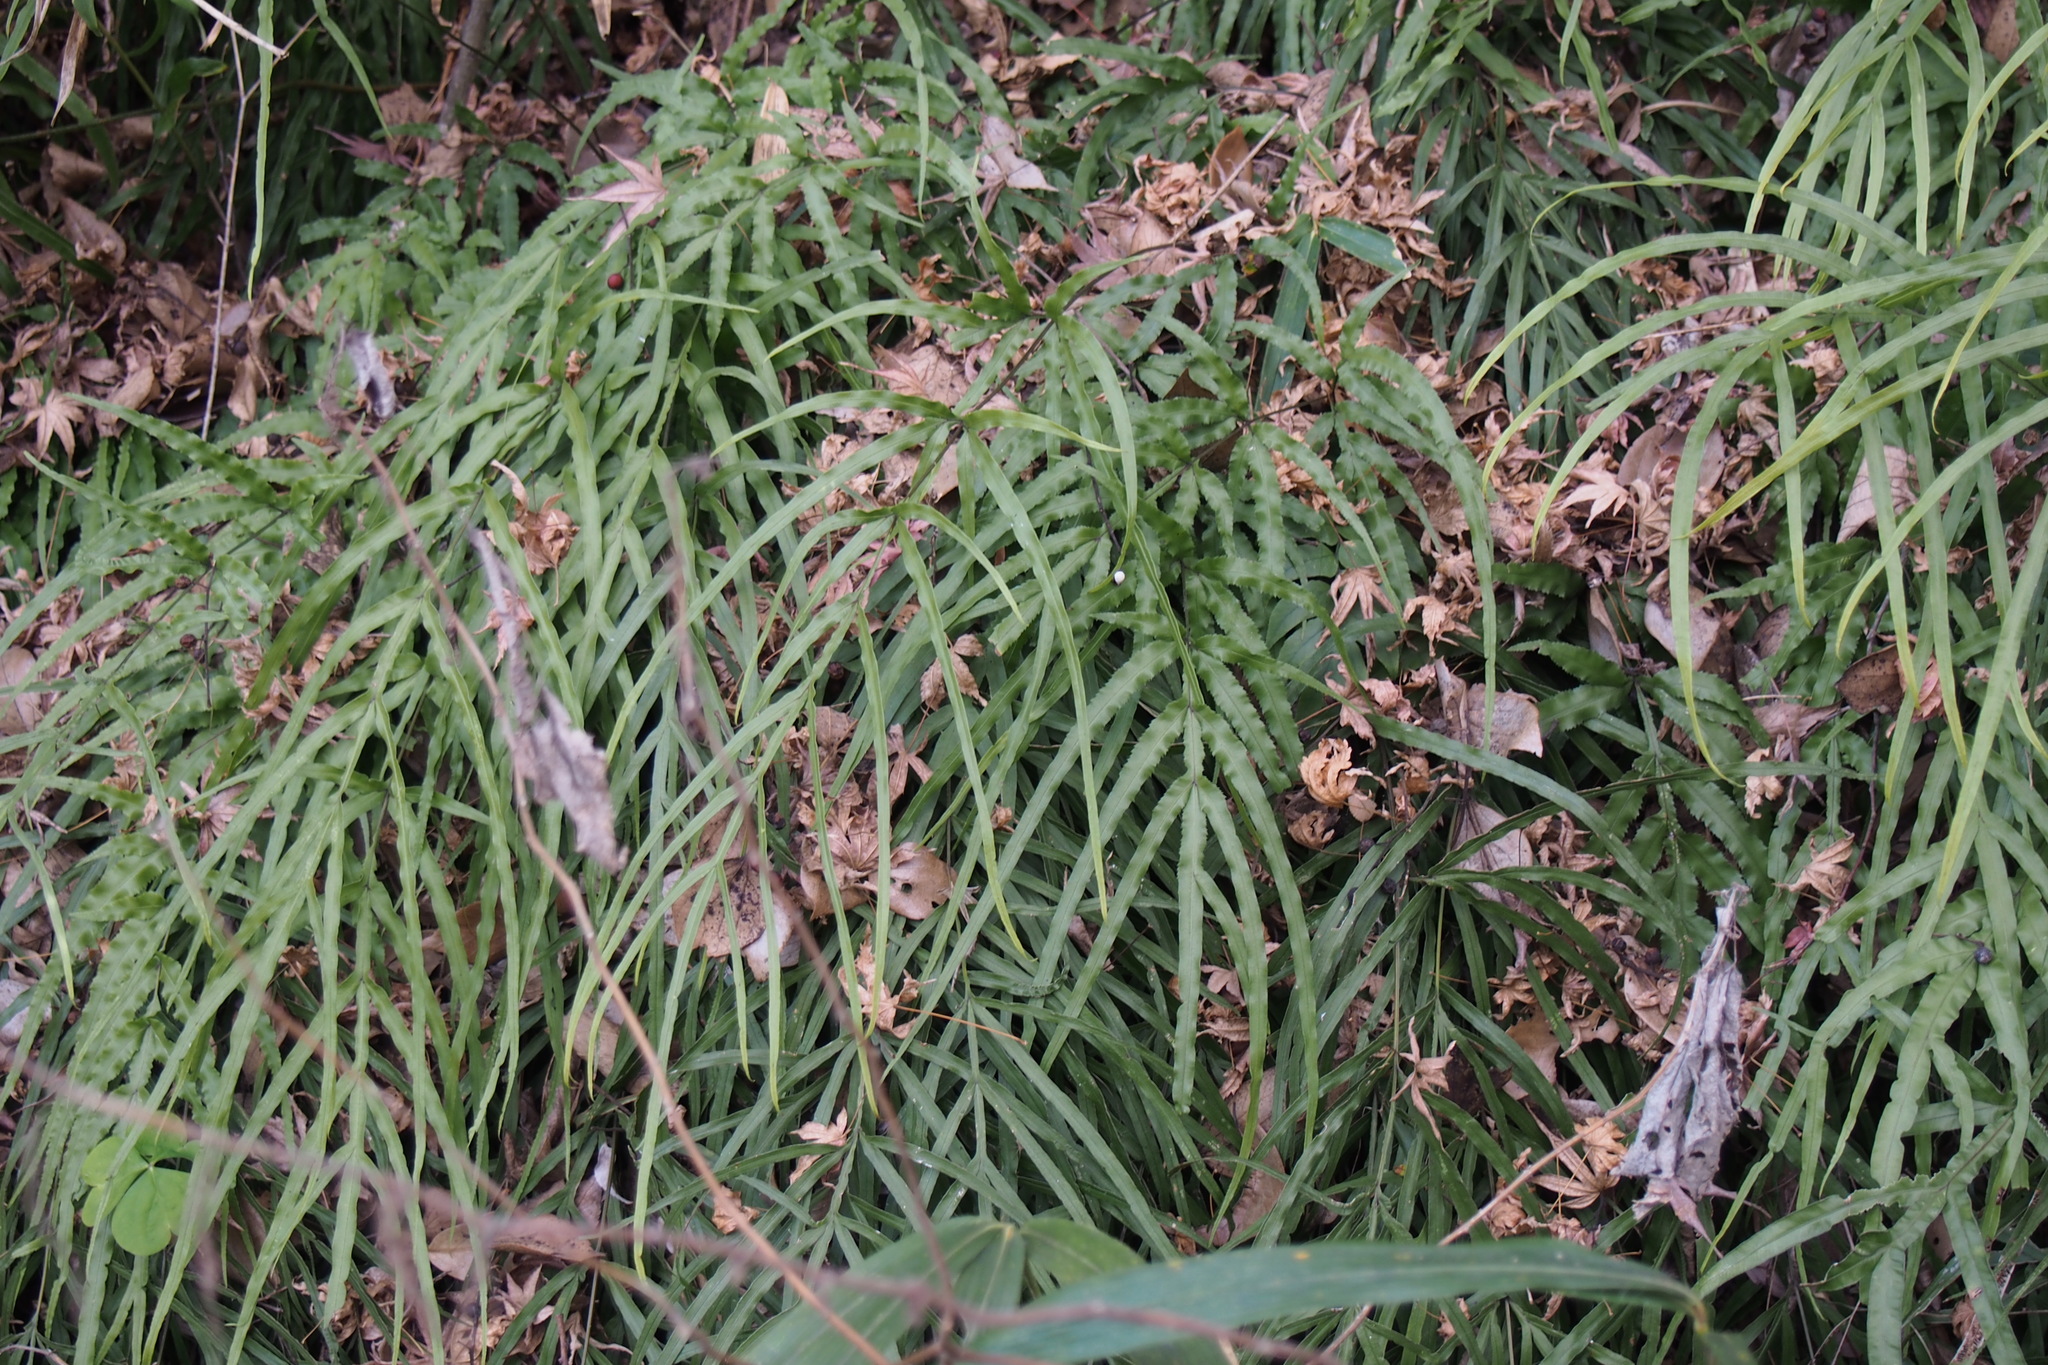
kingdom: Plantae
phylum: Tracheophyta
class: Polypodiopsida
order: Polypodiales
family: Pteridaceae
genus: Pteris
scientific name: Pteris multifida
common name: Spider brake
